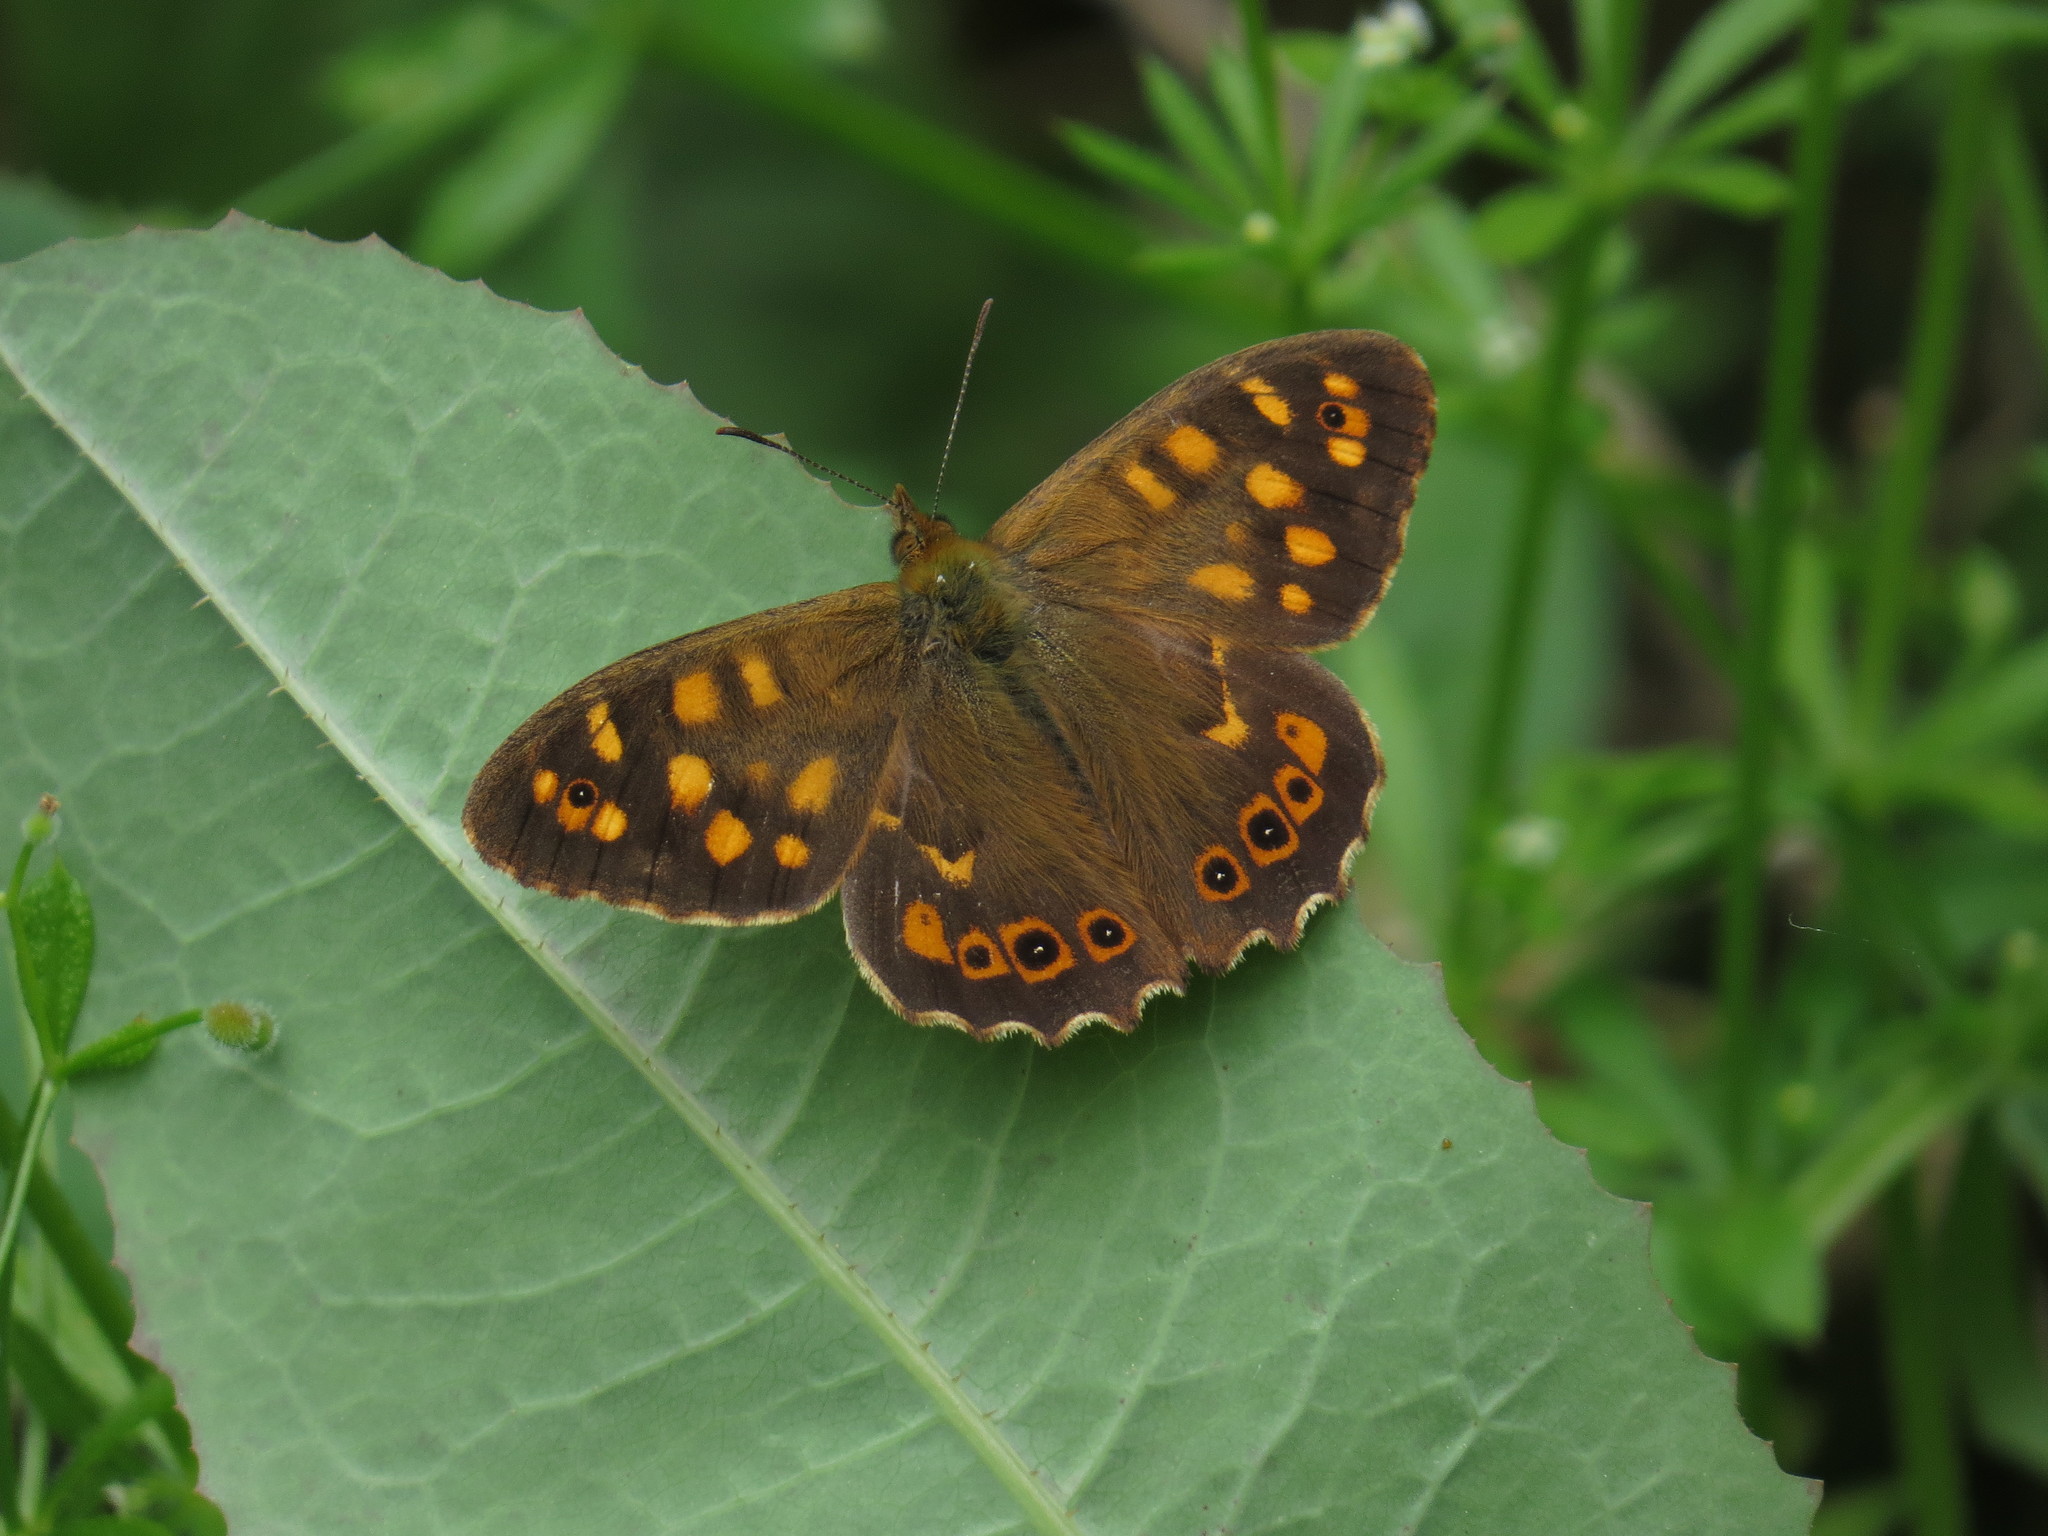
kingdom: Animalia
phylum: Arthropoda
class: Insecta
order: Lepidoptera
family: Nymphalidae
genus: Pararge
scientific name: Pararge aegeria
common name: Speckled wood
